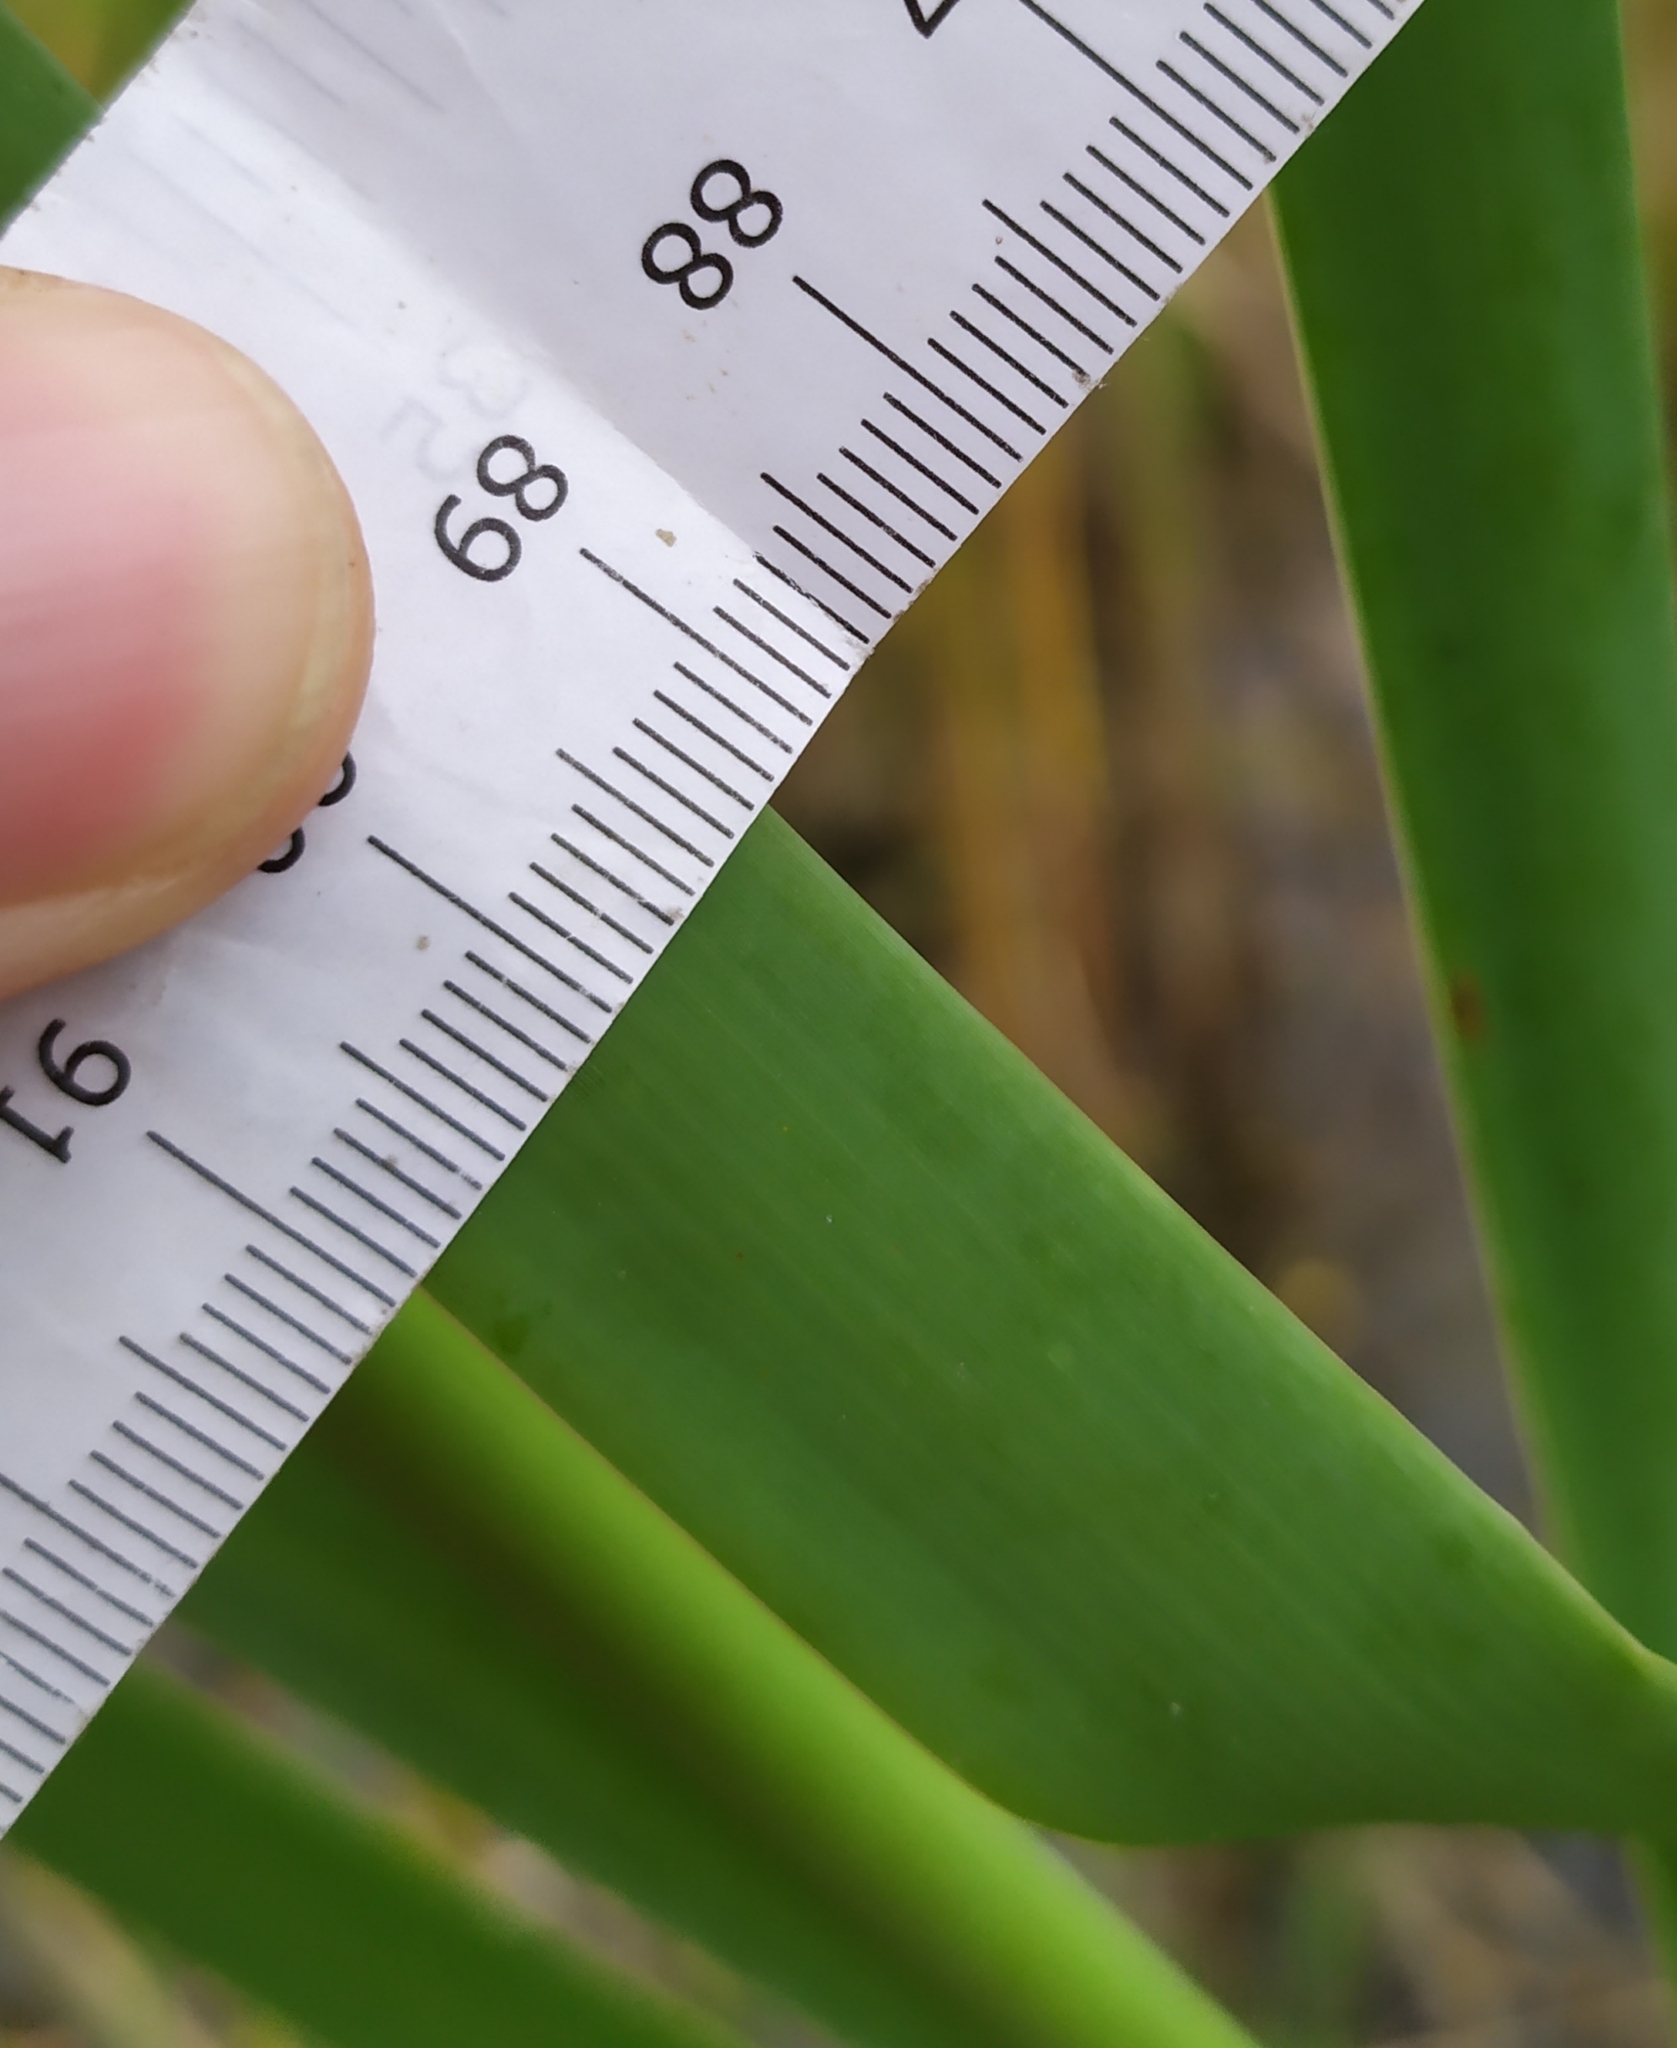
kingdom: Plantae
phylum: Tracheophyta
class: Liliopsida
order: Poales
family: Typhaceae
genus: Typha
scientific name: Typha latifolia
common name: Broadleaf cattail
